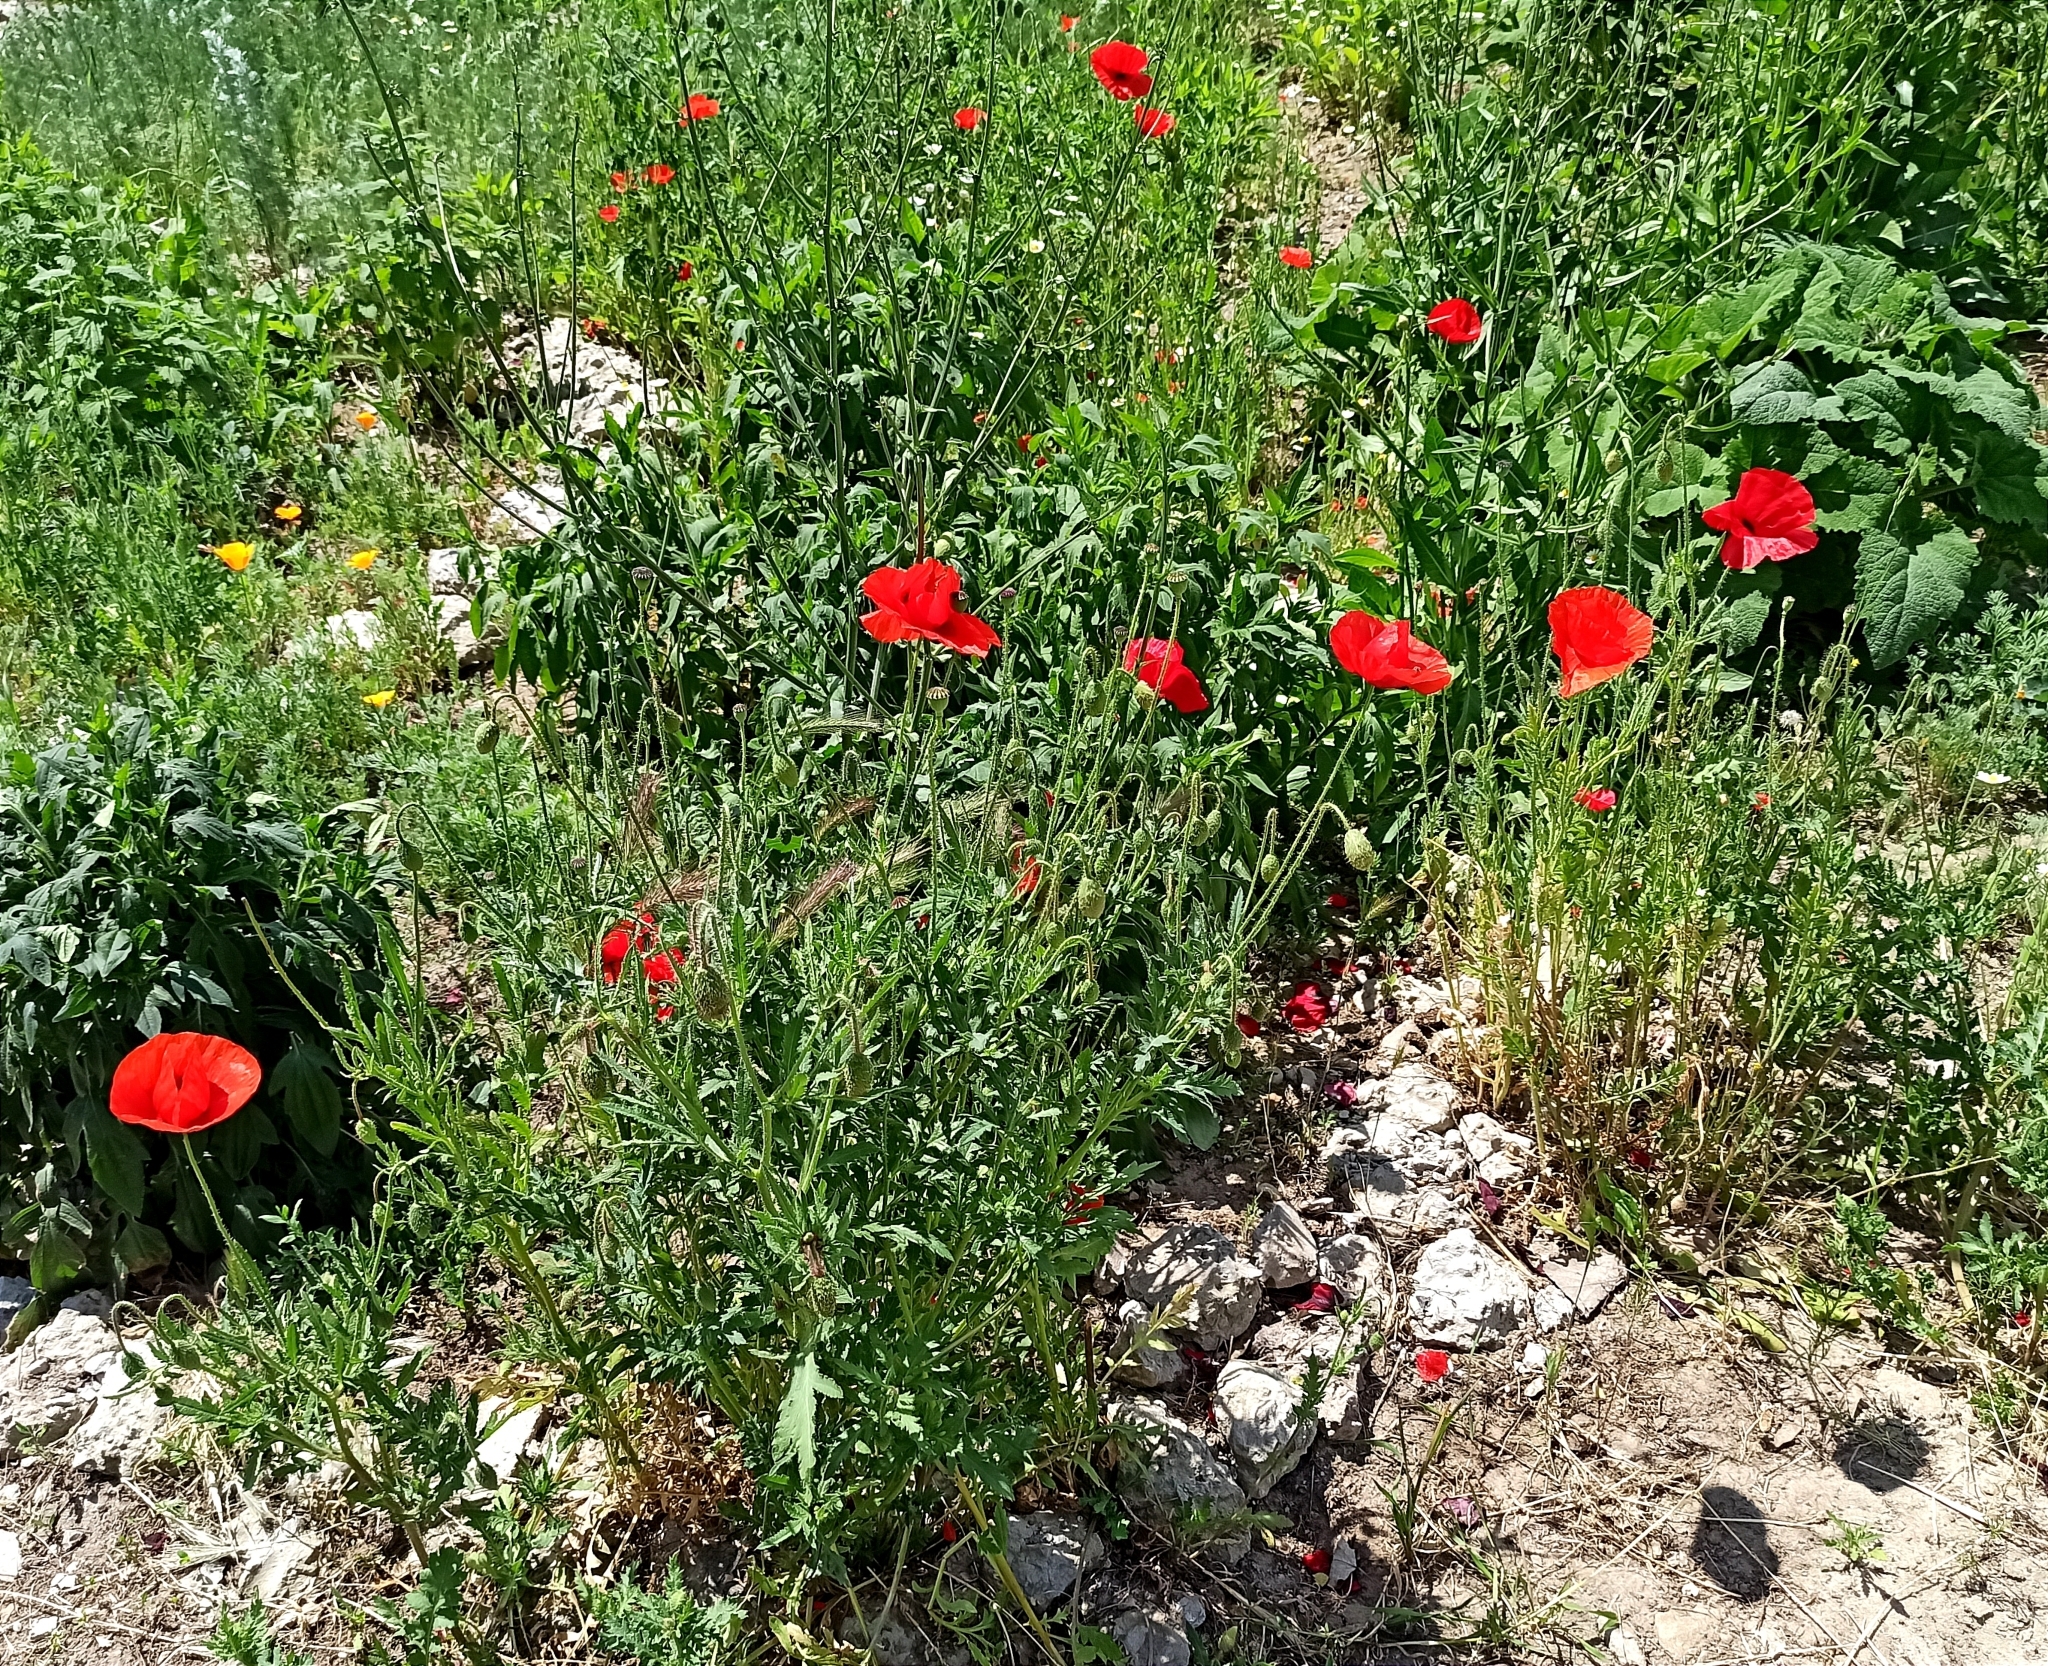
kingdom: Plantae
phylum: Tracheophyta
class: Magnoliopsida
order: Ranunculales
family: Papaveraceae
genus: Papaver
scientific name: Papaver rhoeas
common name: Corn poppy
